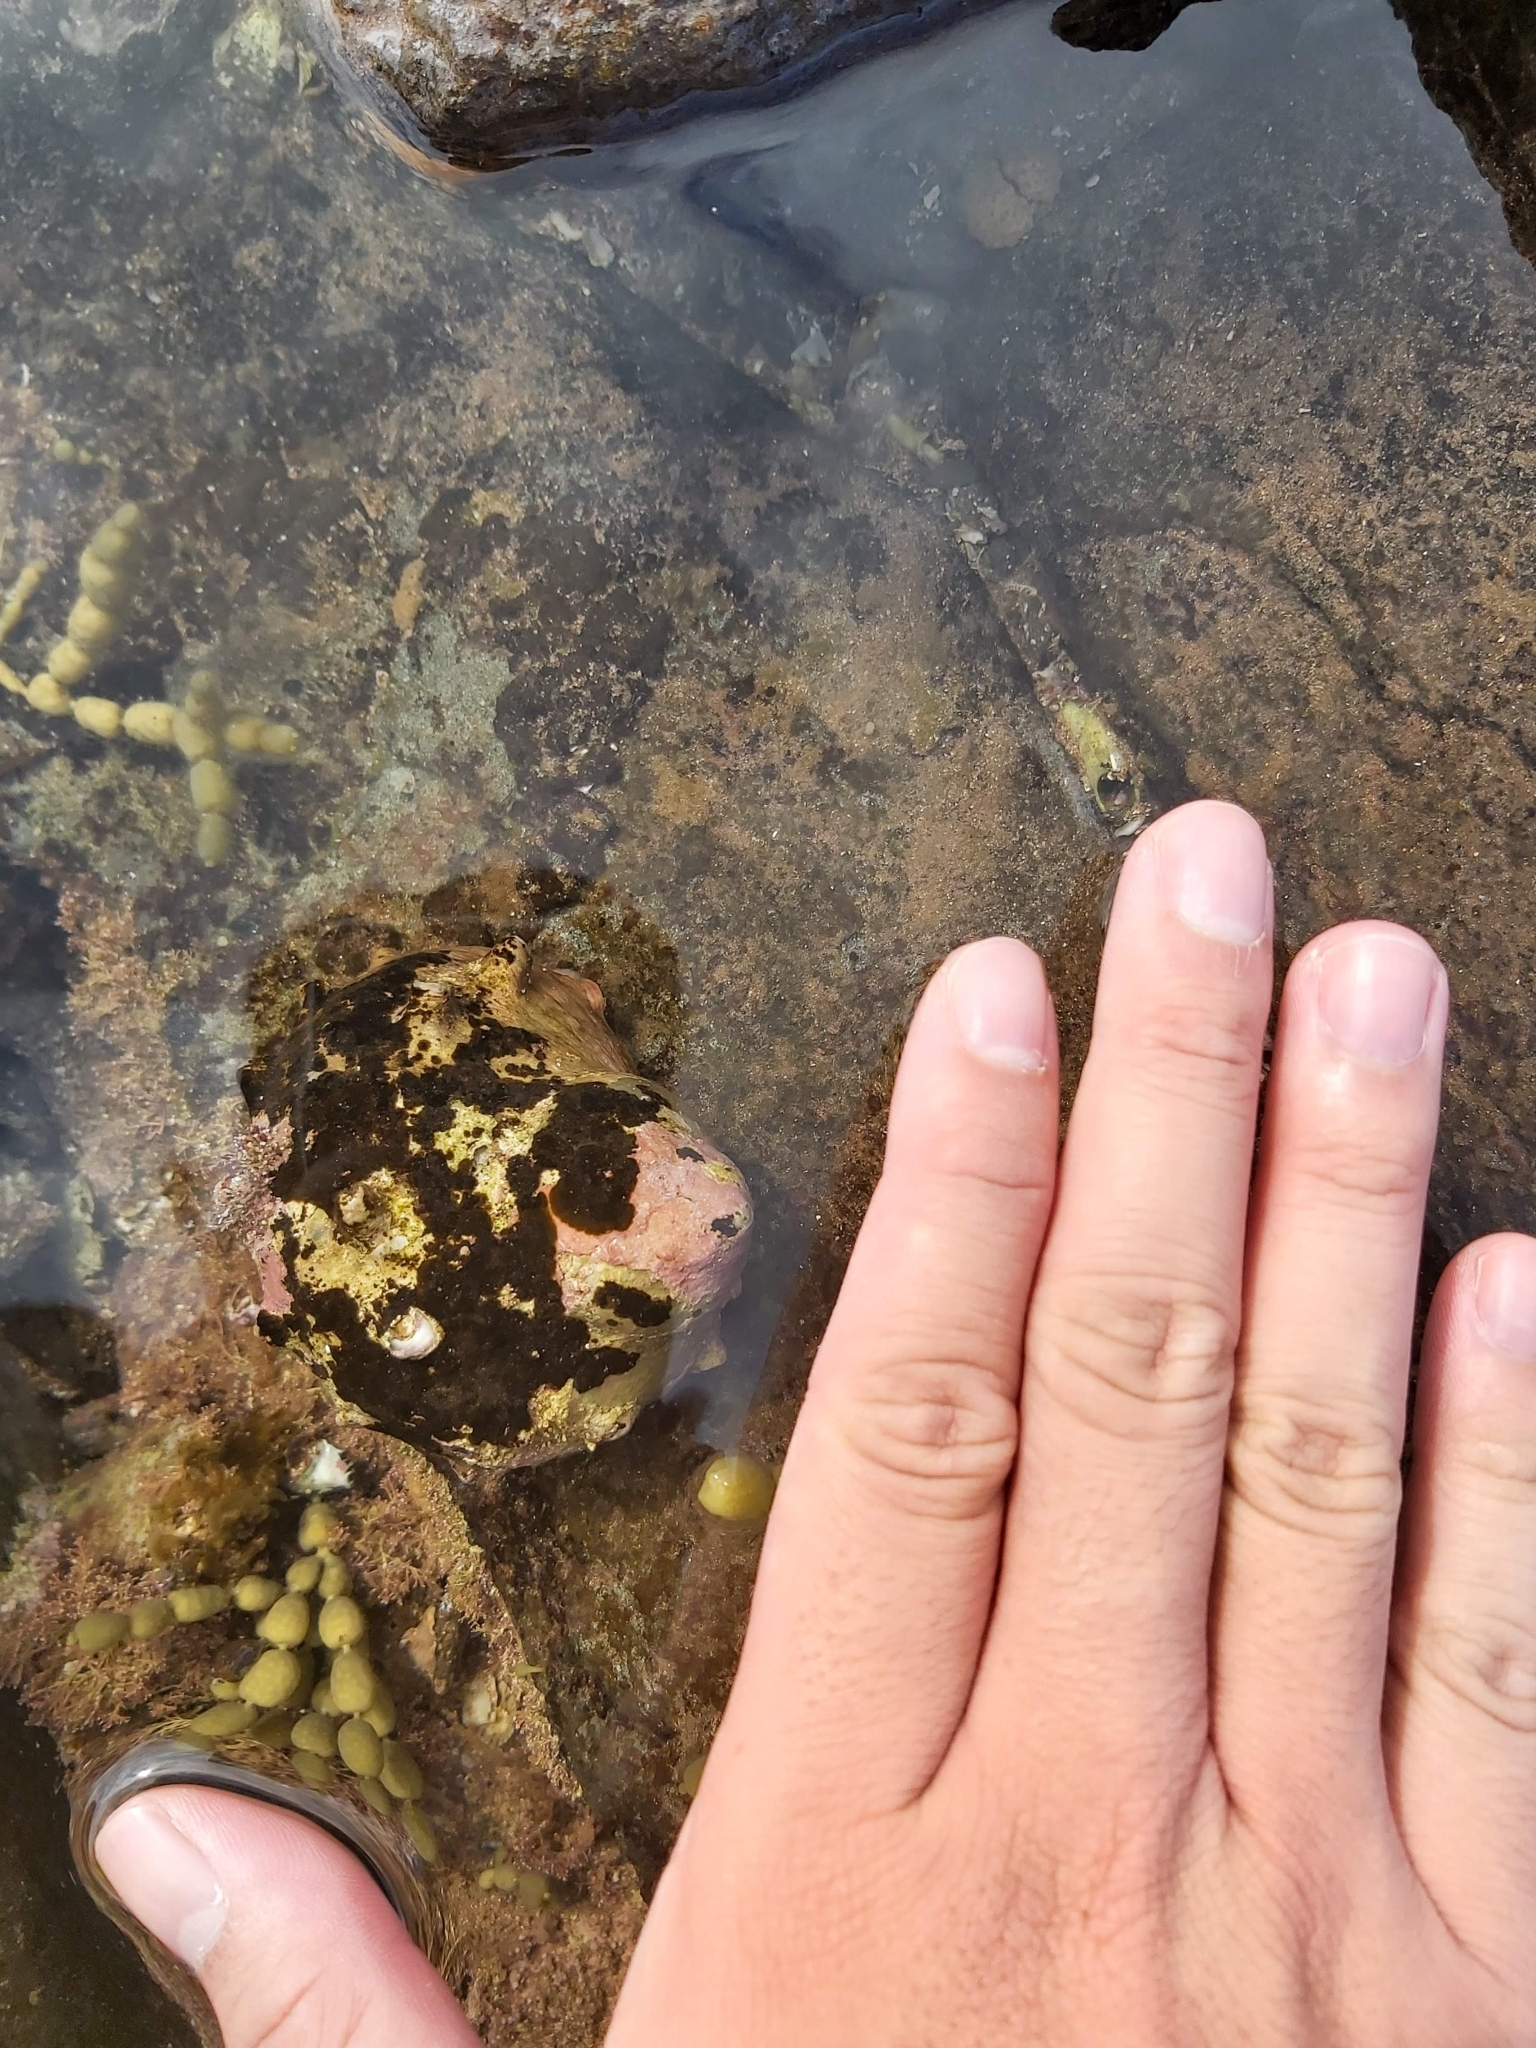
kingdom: Animalia
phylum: Mollusca
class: Gastropoda
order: Trochida
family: Turbinidae
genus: Turbo
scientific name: Turbo militaris
